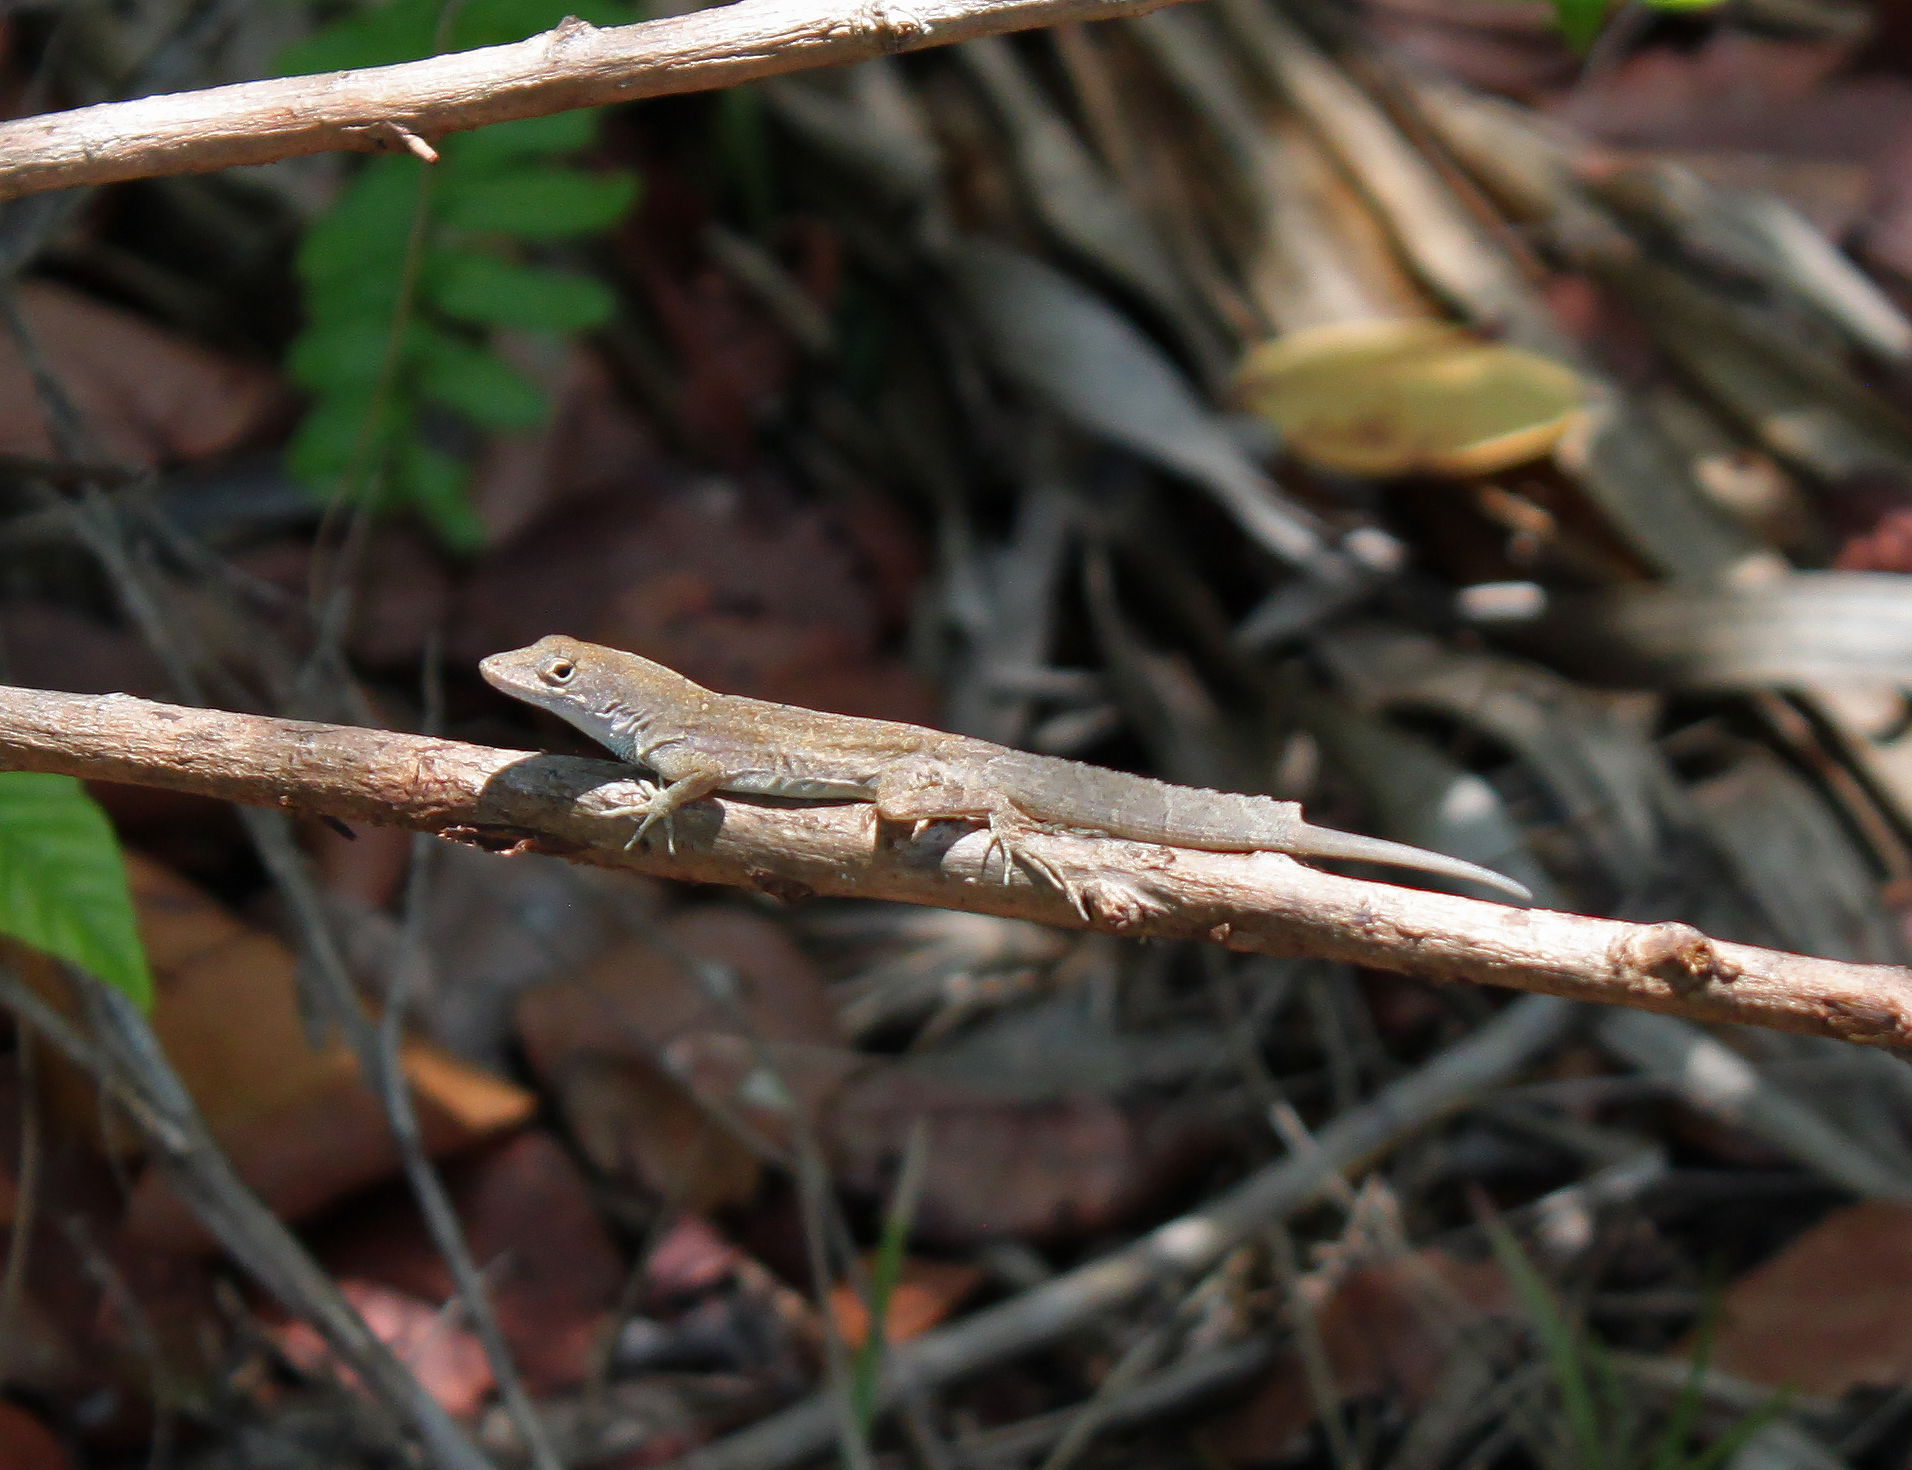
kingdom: Animalia
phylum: Chordata
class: Squamata
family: Dactyloidae
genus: Anolis
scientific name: Anolis sagrei
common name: Brown anole
